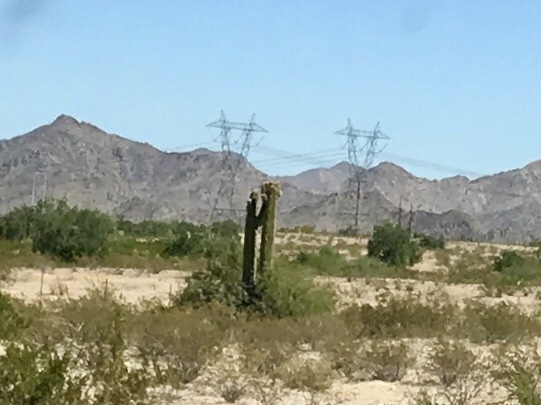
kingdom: Plantae
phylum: Tracheophyta
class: Magnoliopsida
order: Caryophyllales
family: Cactaceae
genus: Carnegiea
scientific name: Carnegiea gigantea
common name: Saguaro
